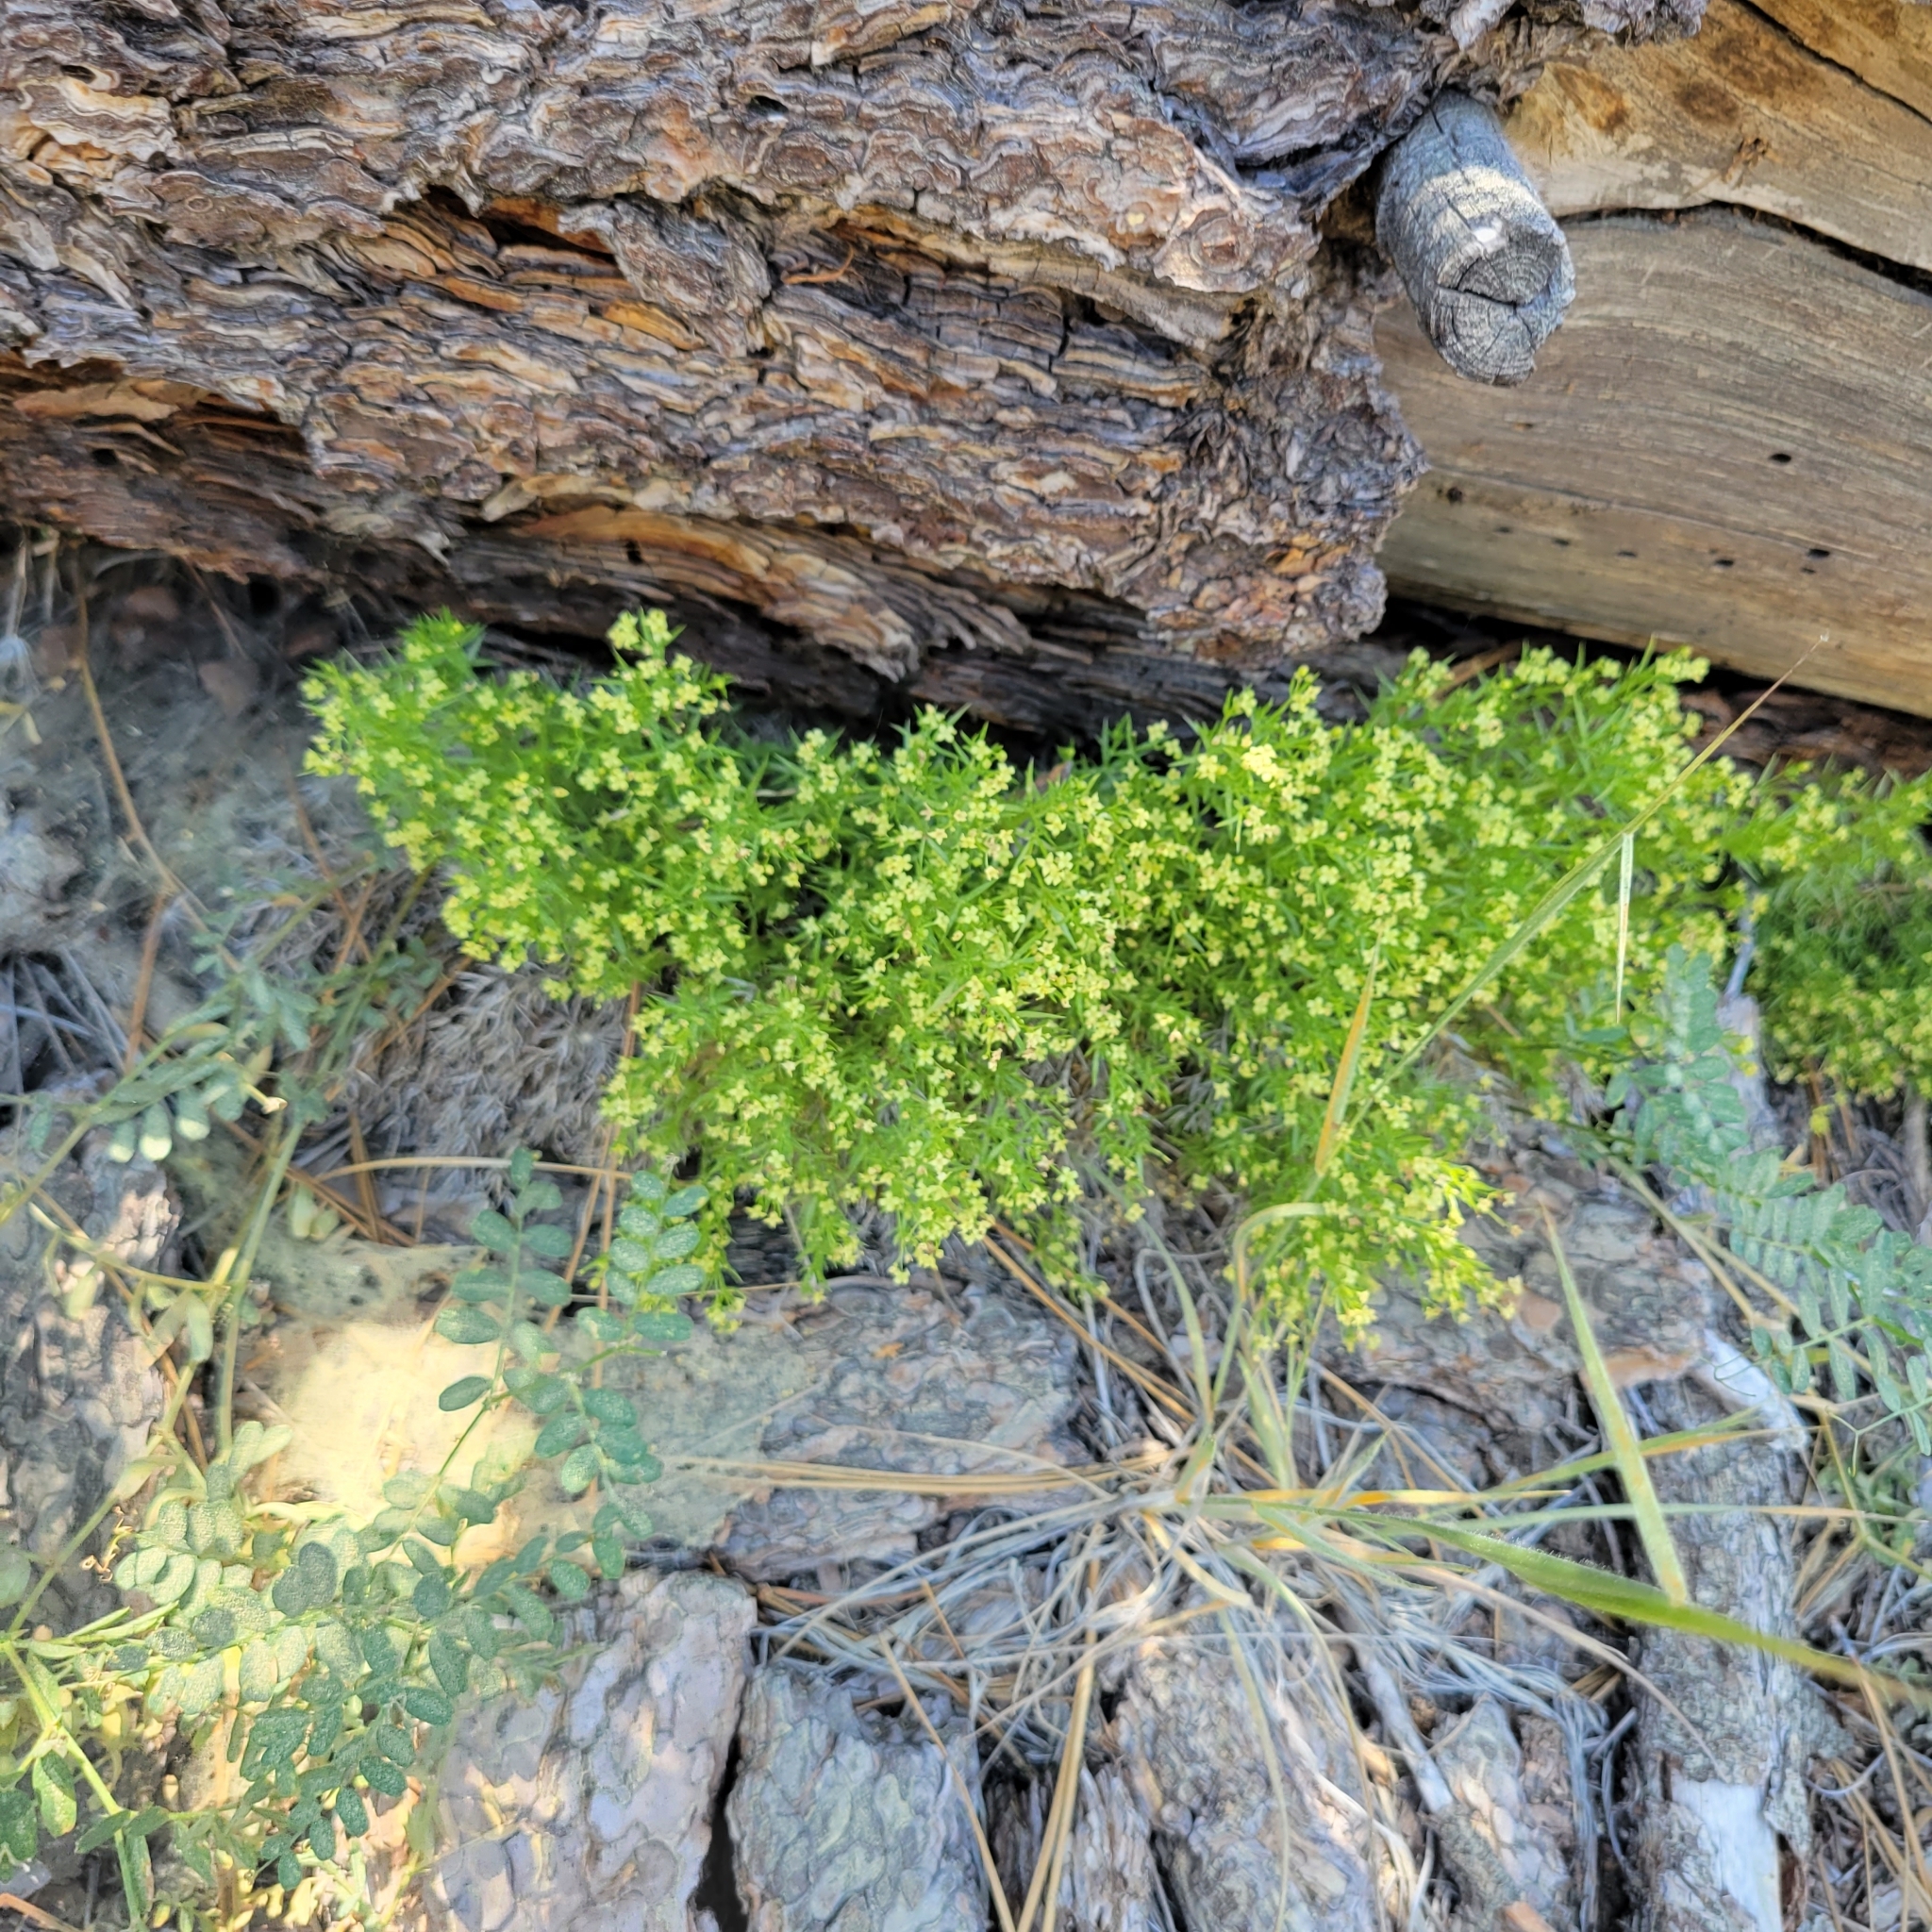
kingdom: Plantae
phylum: Tracheophyta
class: Magnoliopsida
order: Gentianales
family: Rubiaceae
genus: Galium
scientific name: Galium andrewsii
